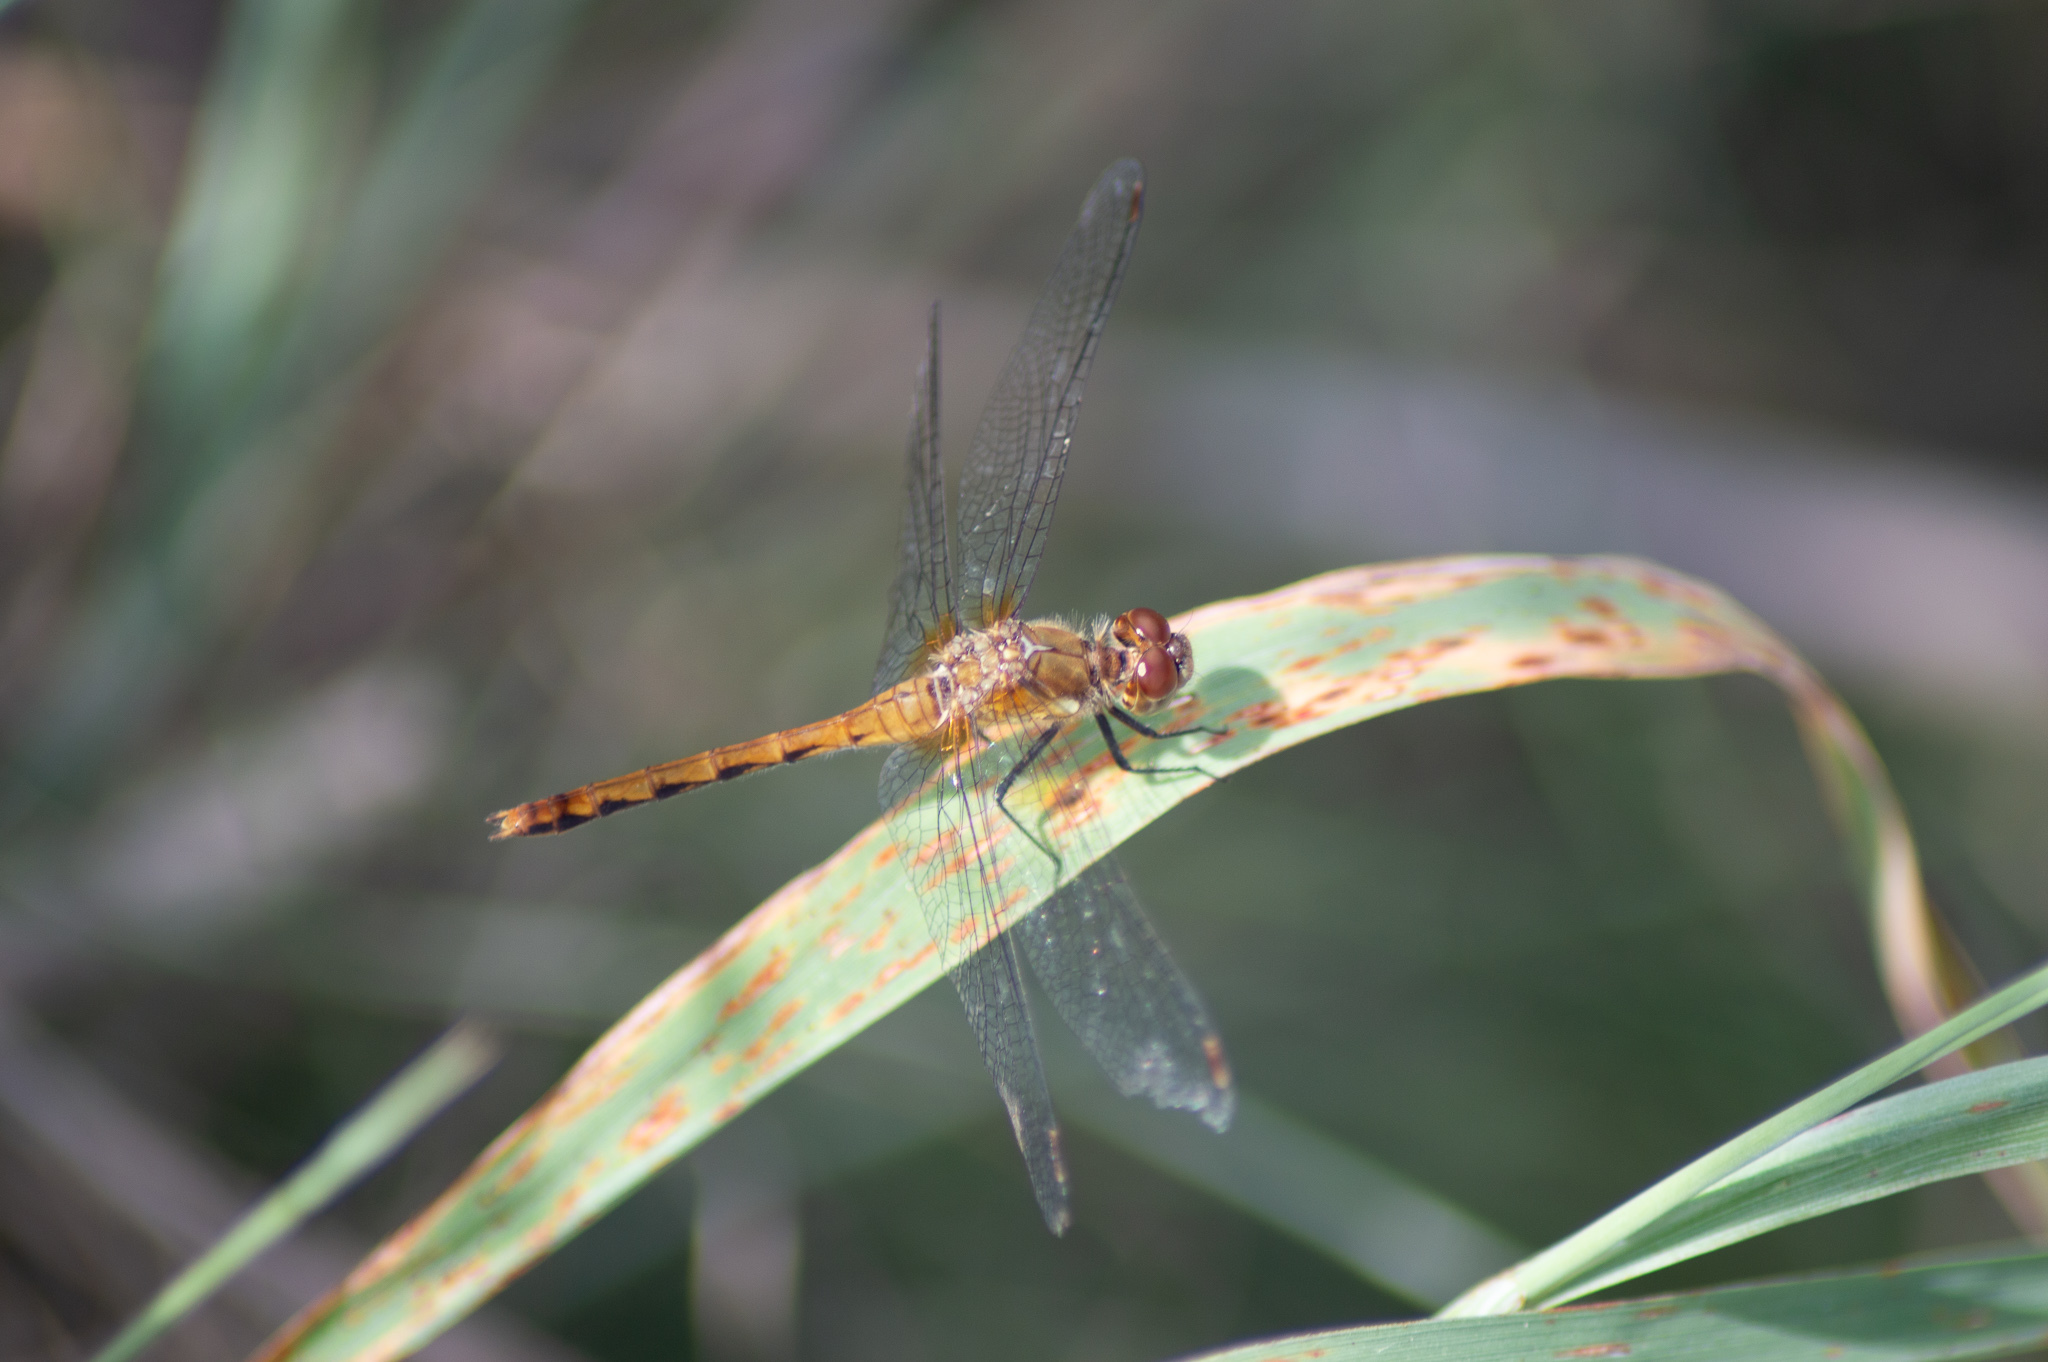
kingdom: Animalia
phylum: Arthropoda
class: Insecta
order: Odonata
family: Libellulidae
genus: Sympetrum
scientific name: Sympetrum
